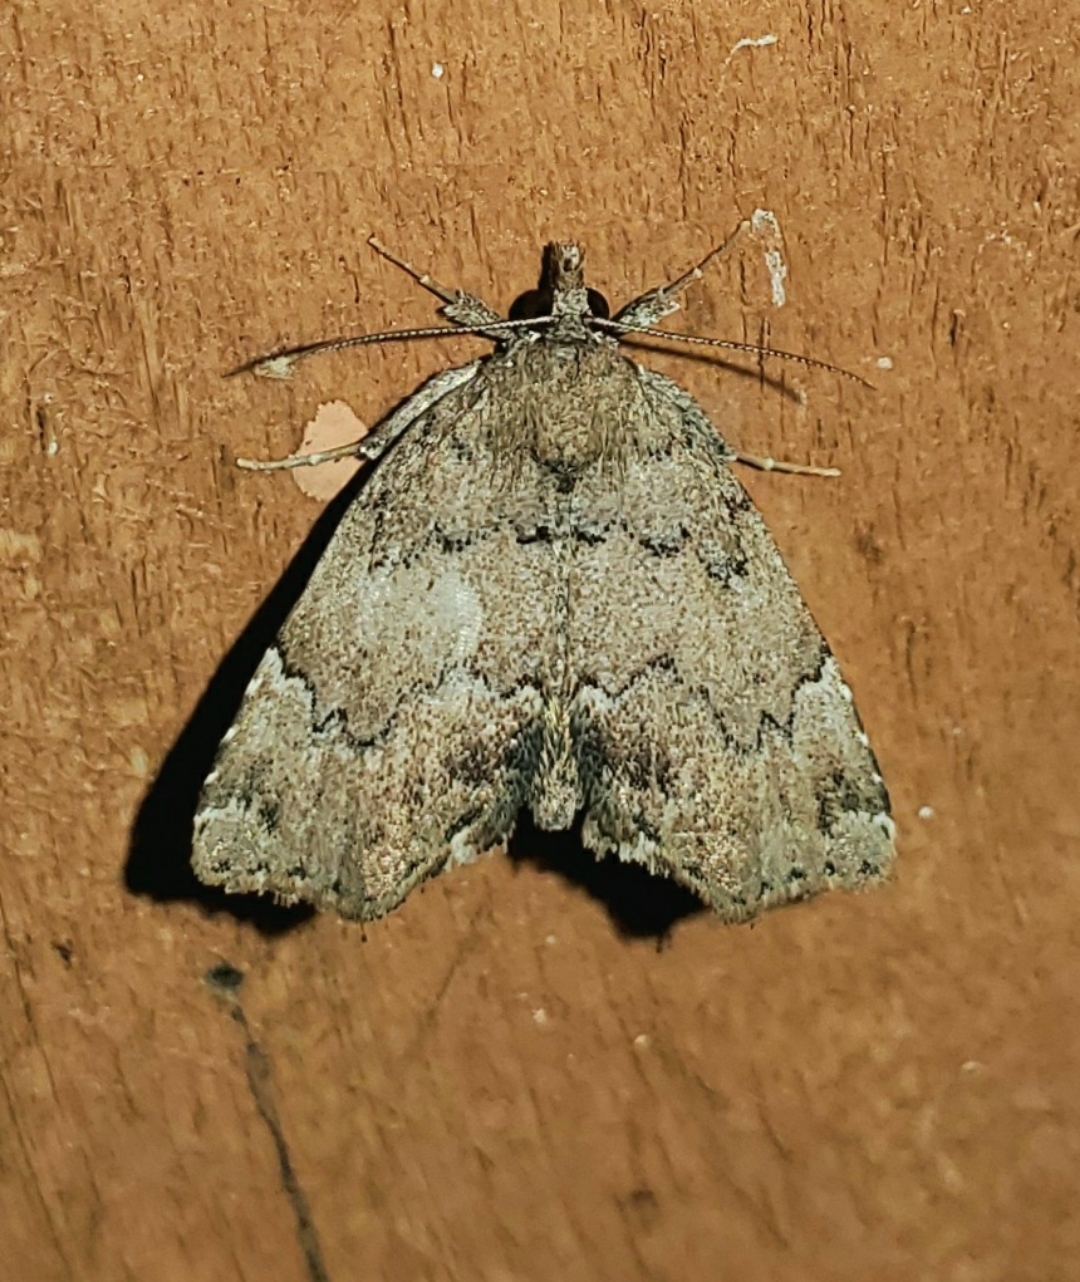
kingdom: Animalia
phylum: Arthropoda
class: Insecta
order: Lepidoptera
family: Erebidae
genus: Cutina
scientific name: Cutina aluticolor
